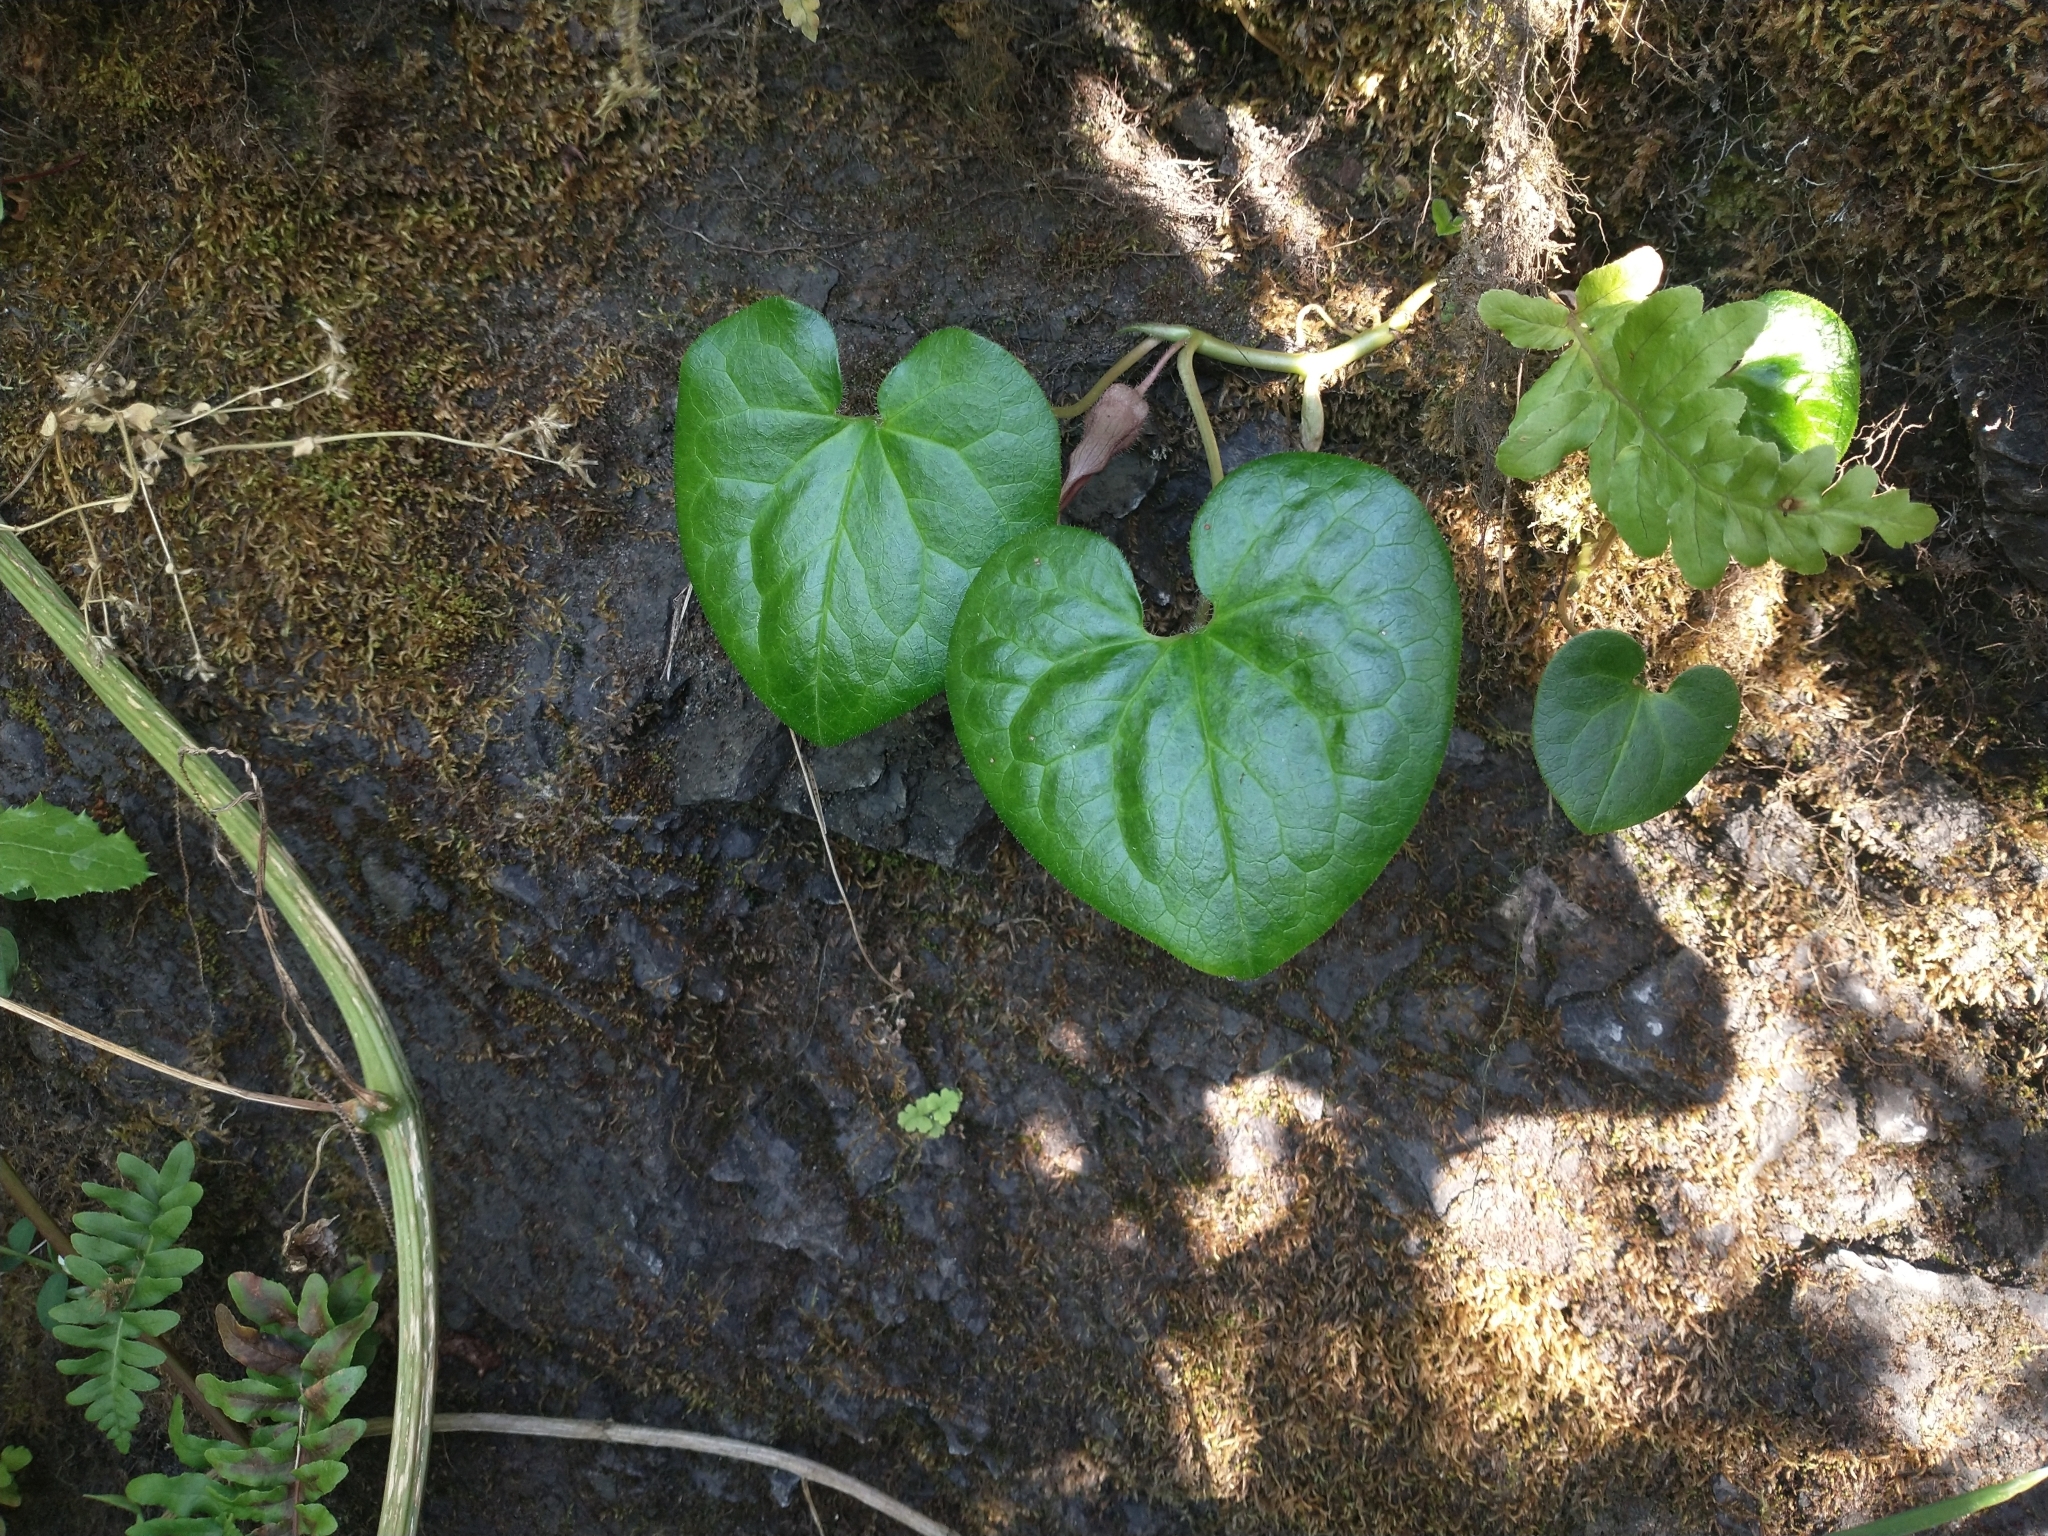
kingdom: Plantae
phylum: Tracheophyta
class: Magnoliopsida
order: Piperales
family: Aristolochiaceae
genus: Asarum
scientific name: Asarum caudatum
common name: Wild ginger
